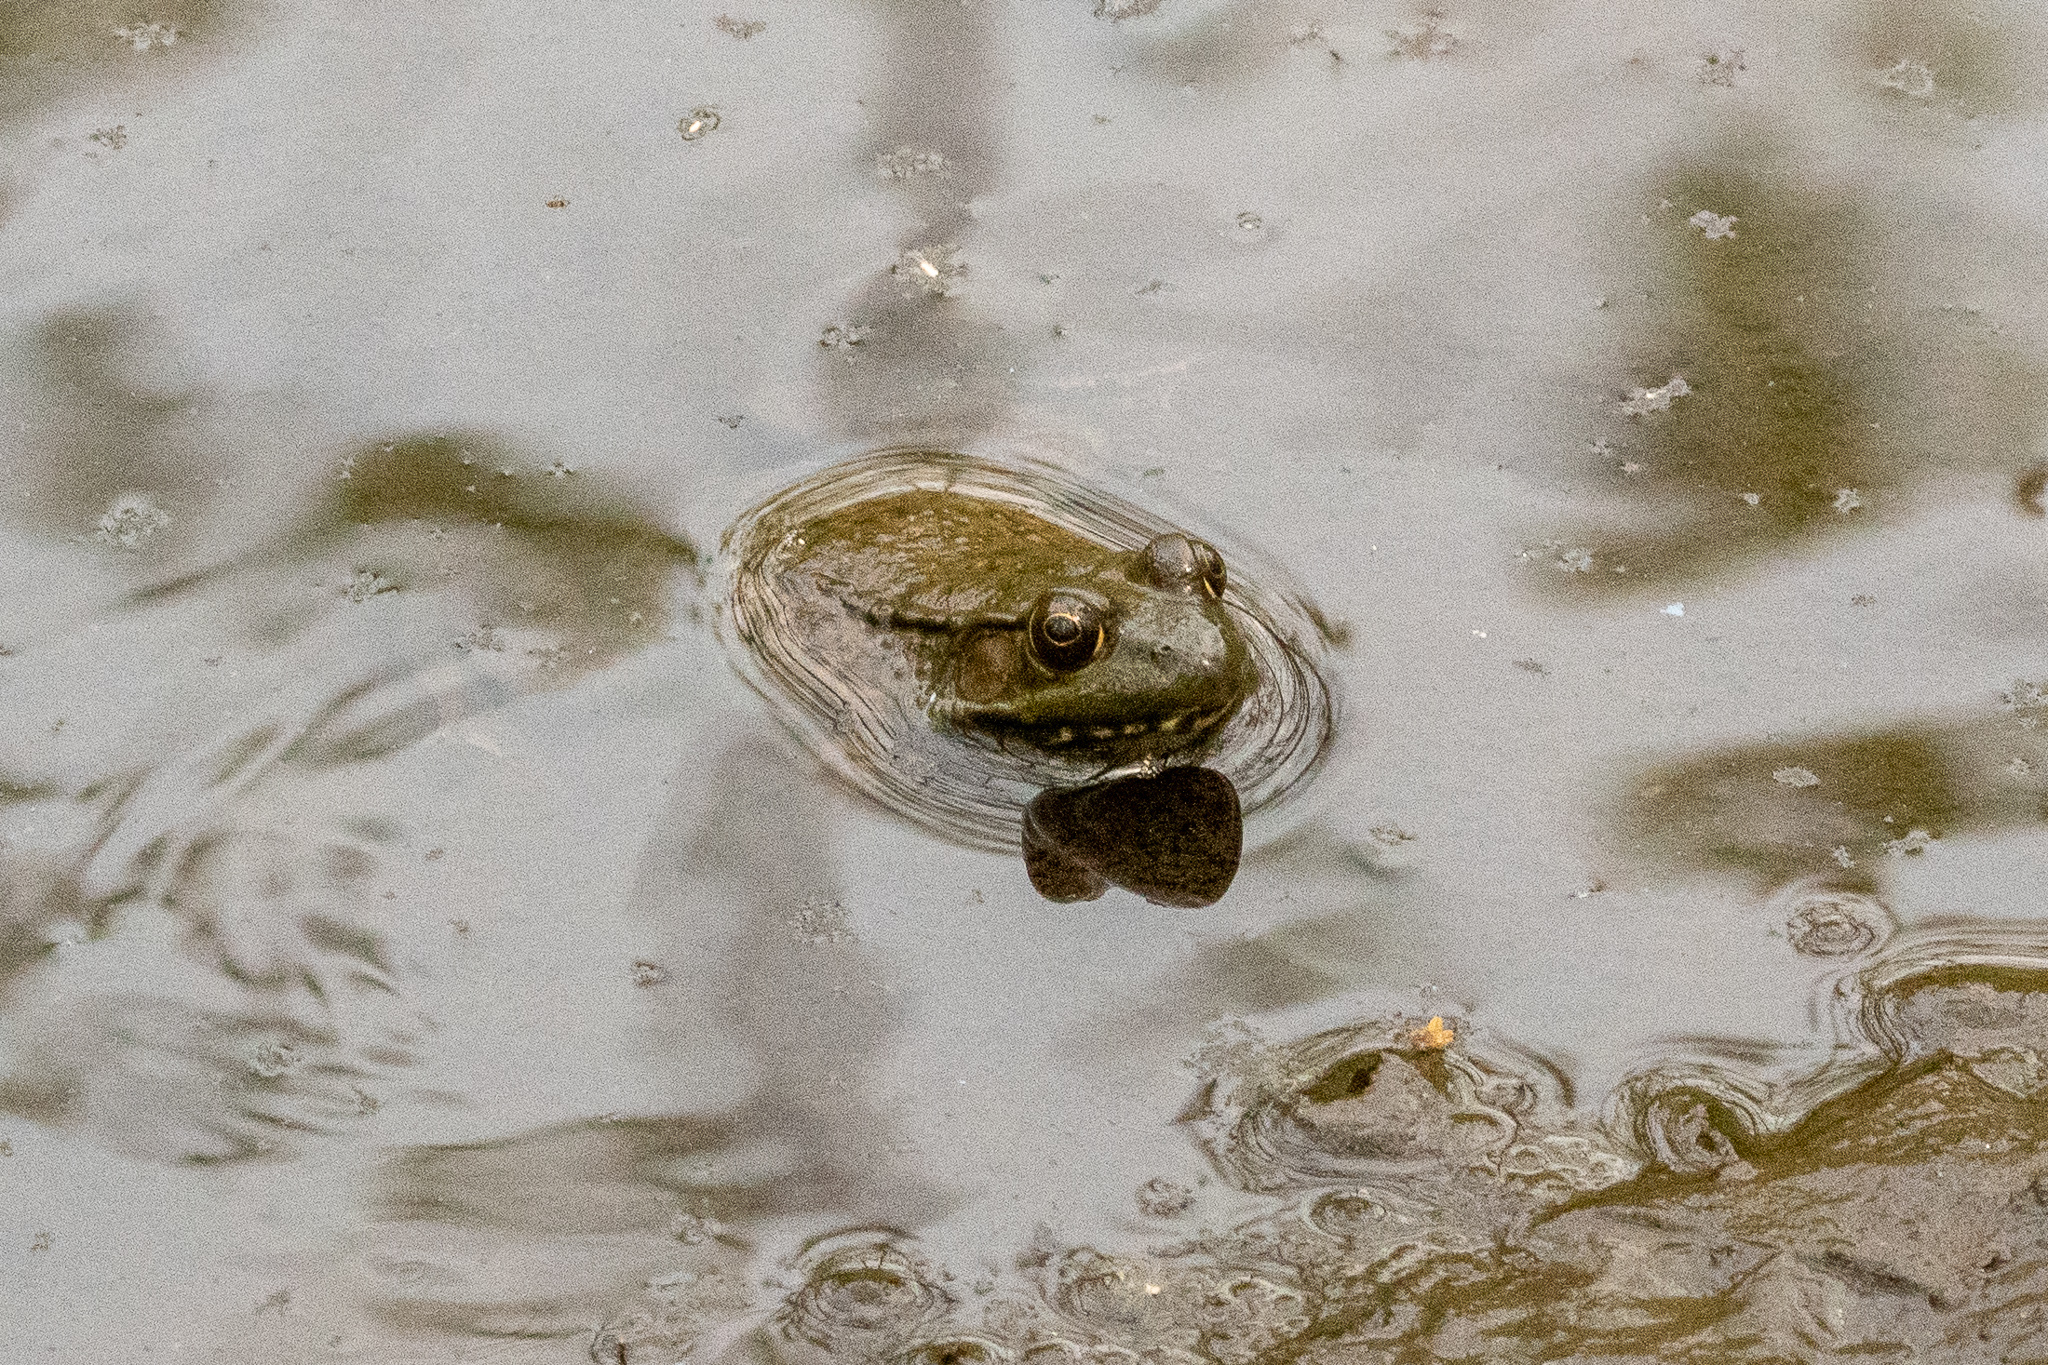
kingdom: Animalia
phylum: Chordata
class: Amphibia
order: Anura
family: Ranidae
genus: Lithobates
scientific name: Lithobates clamitans
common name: Green frog
